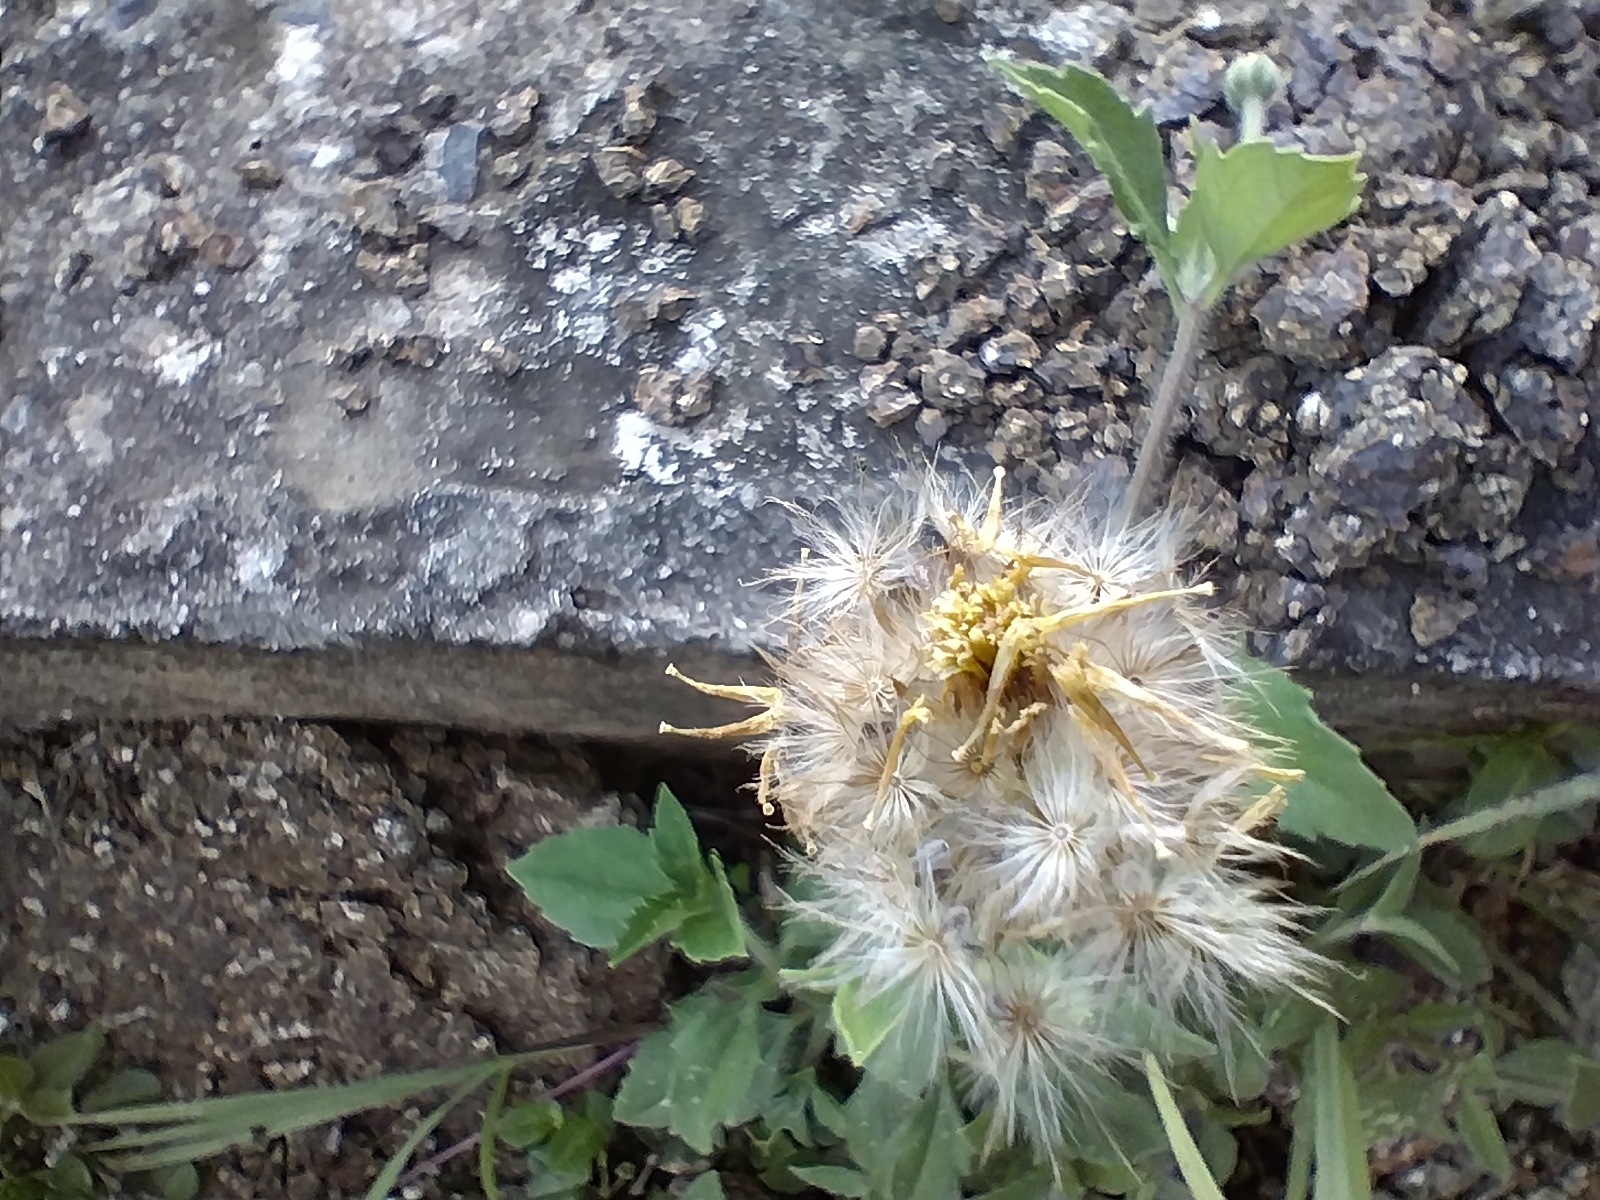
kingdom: Plantae
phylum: Tracheophyta
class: Magnoliopsida
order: Asterales
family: Asteraceae
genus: Tridax
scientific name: Tridax procumbens
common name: Coatbuttons
